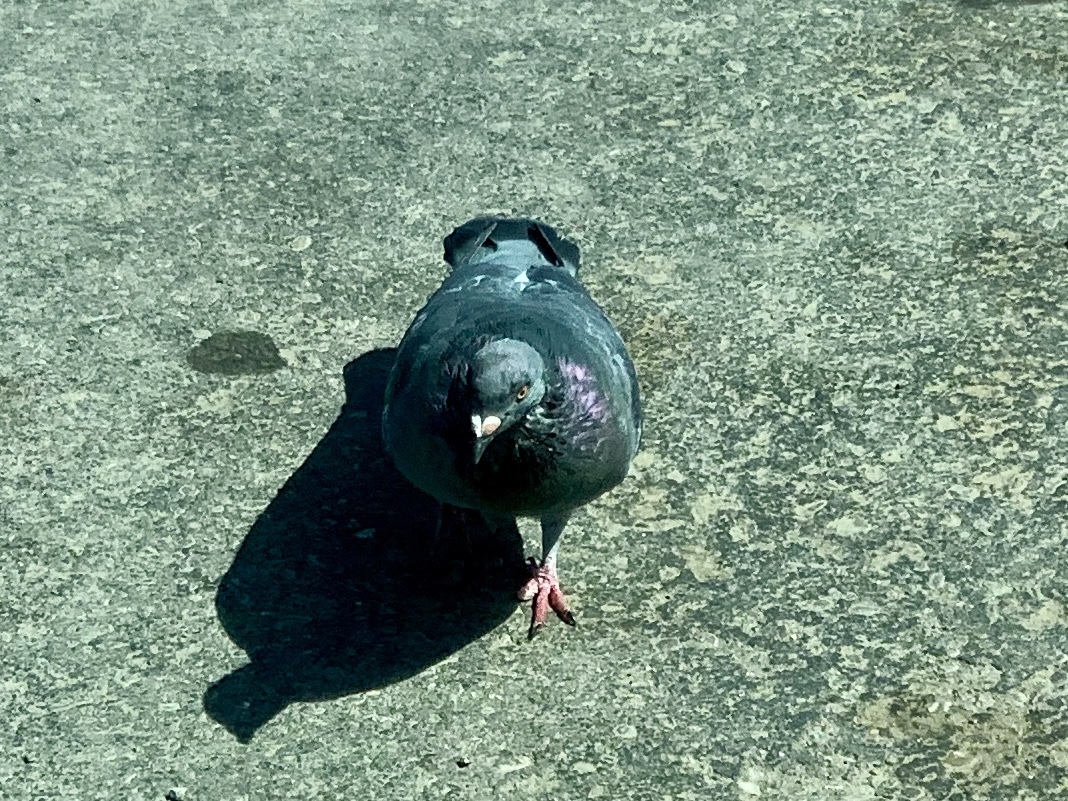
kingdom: Animalia
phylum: Chordata
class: Aves
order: Columbiformes
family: Columbidae
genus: Columba
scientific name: Columba livia
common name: Rock pigeon
